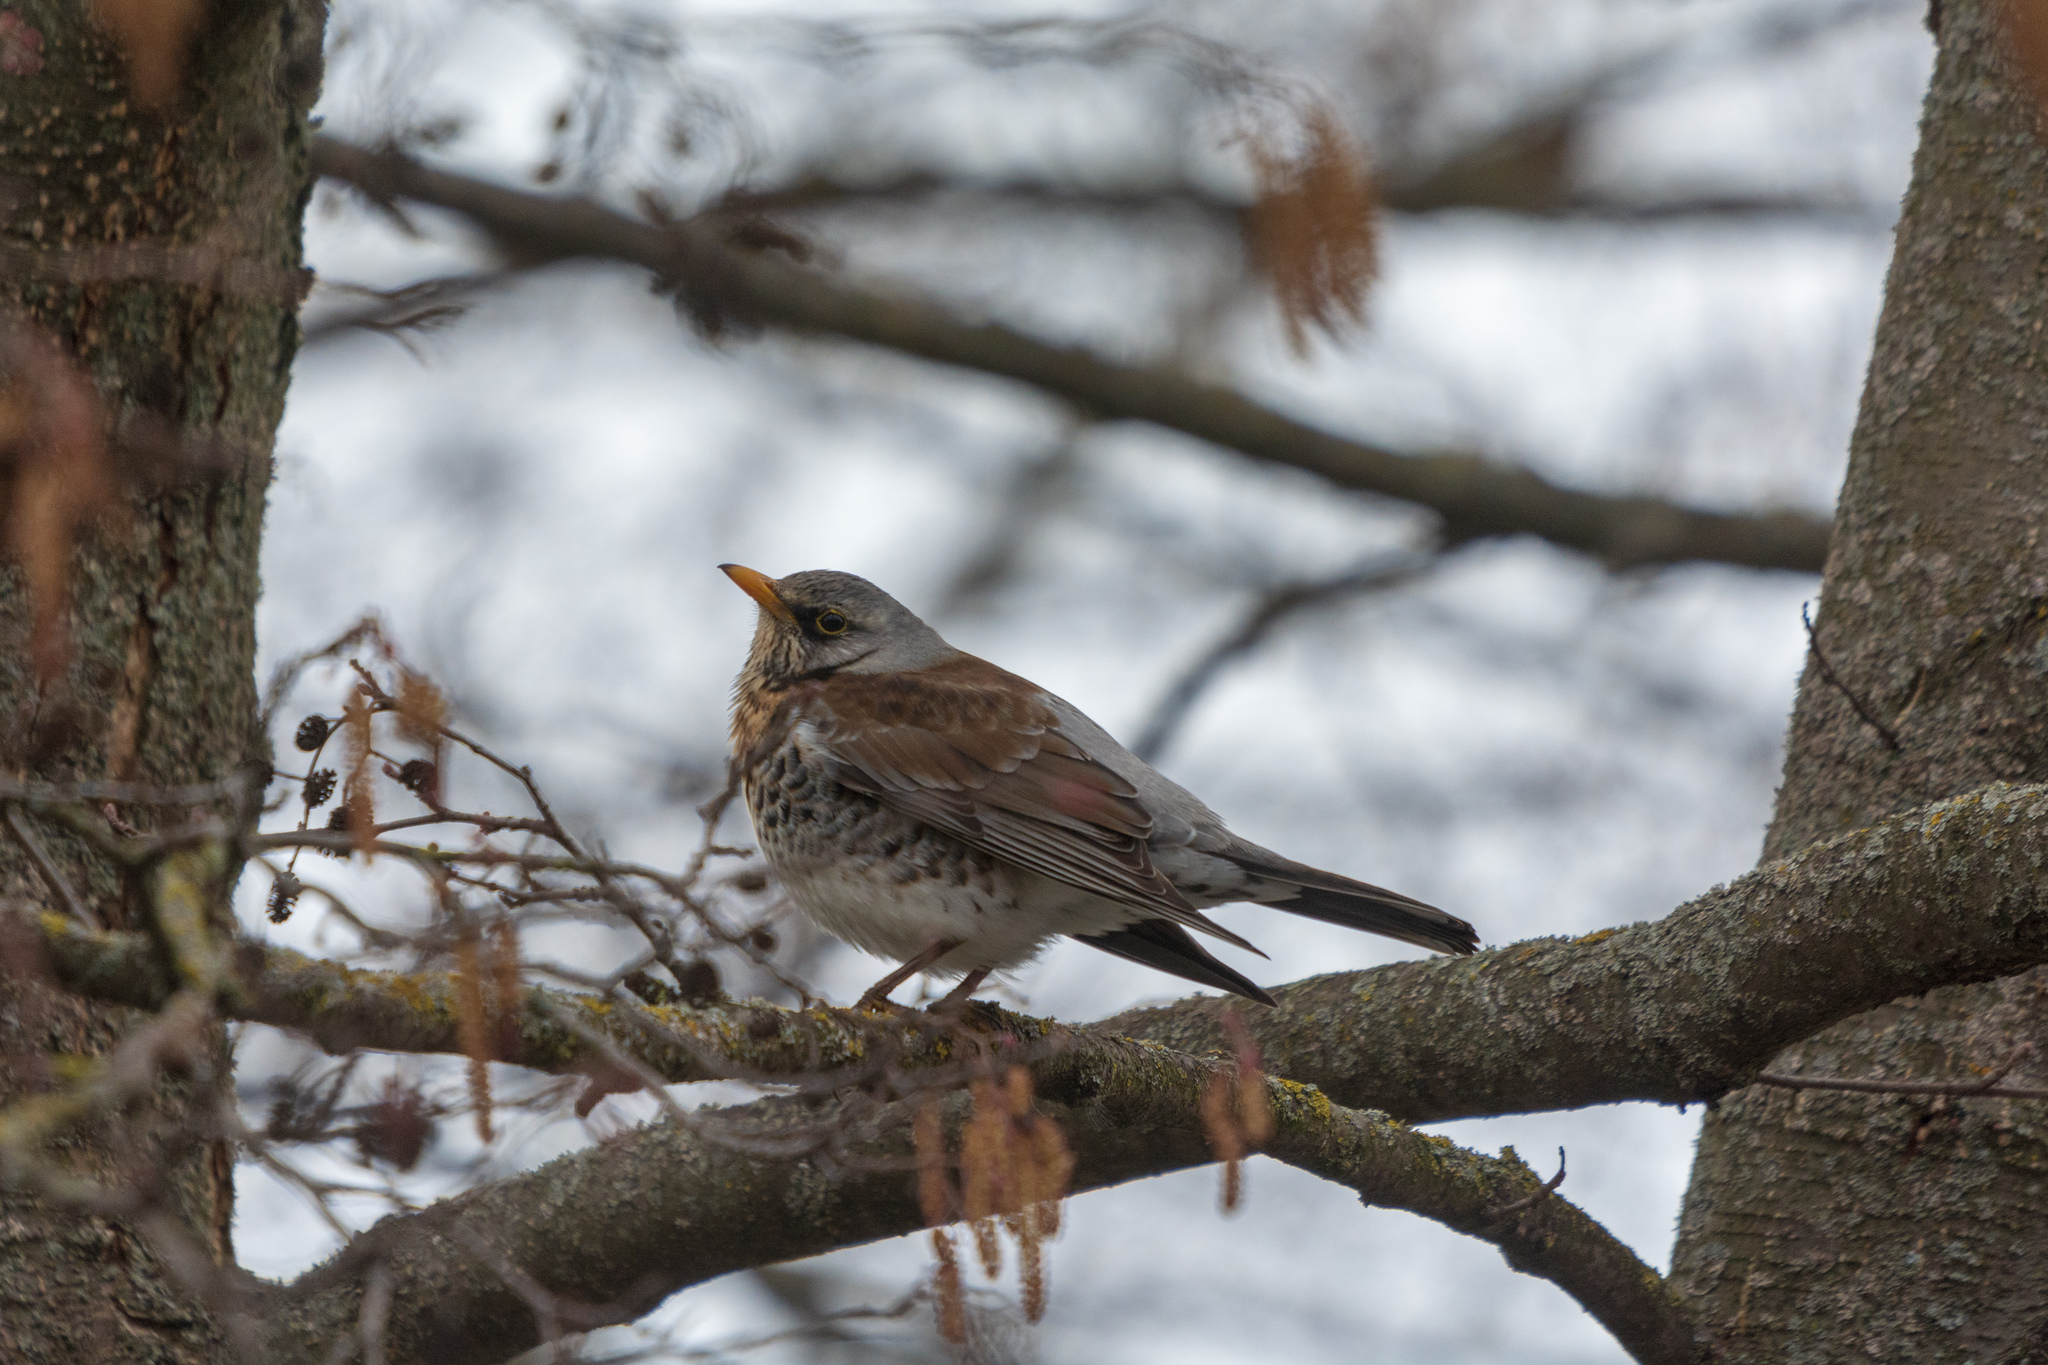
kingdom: Animalia
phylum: Chordata
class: Aves
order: Passeriformes
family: Turdidae
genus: Turdus
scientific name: Turdus pilaris
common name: Fieldfare
